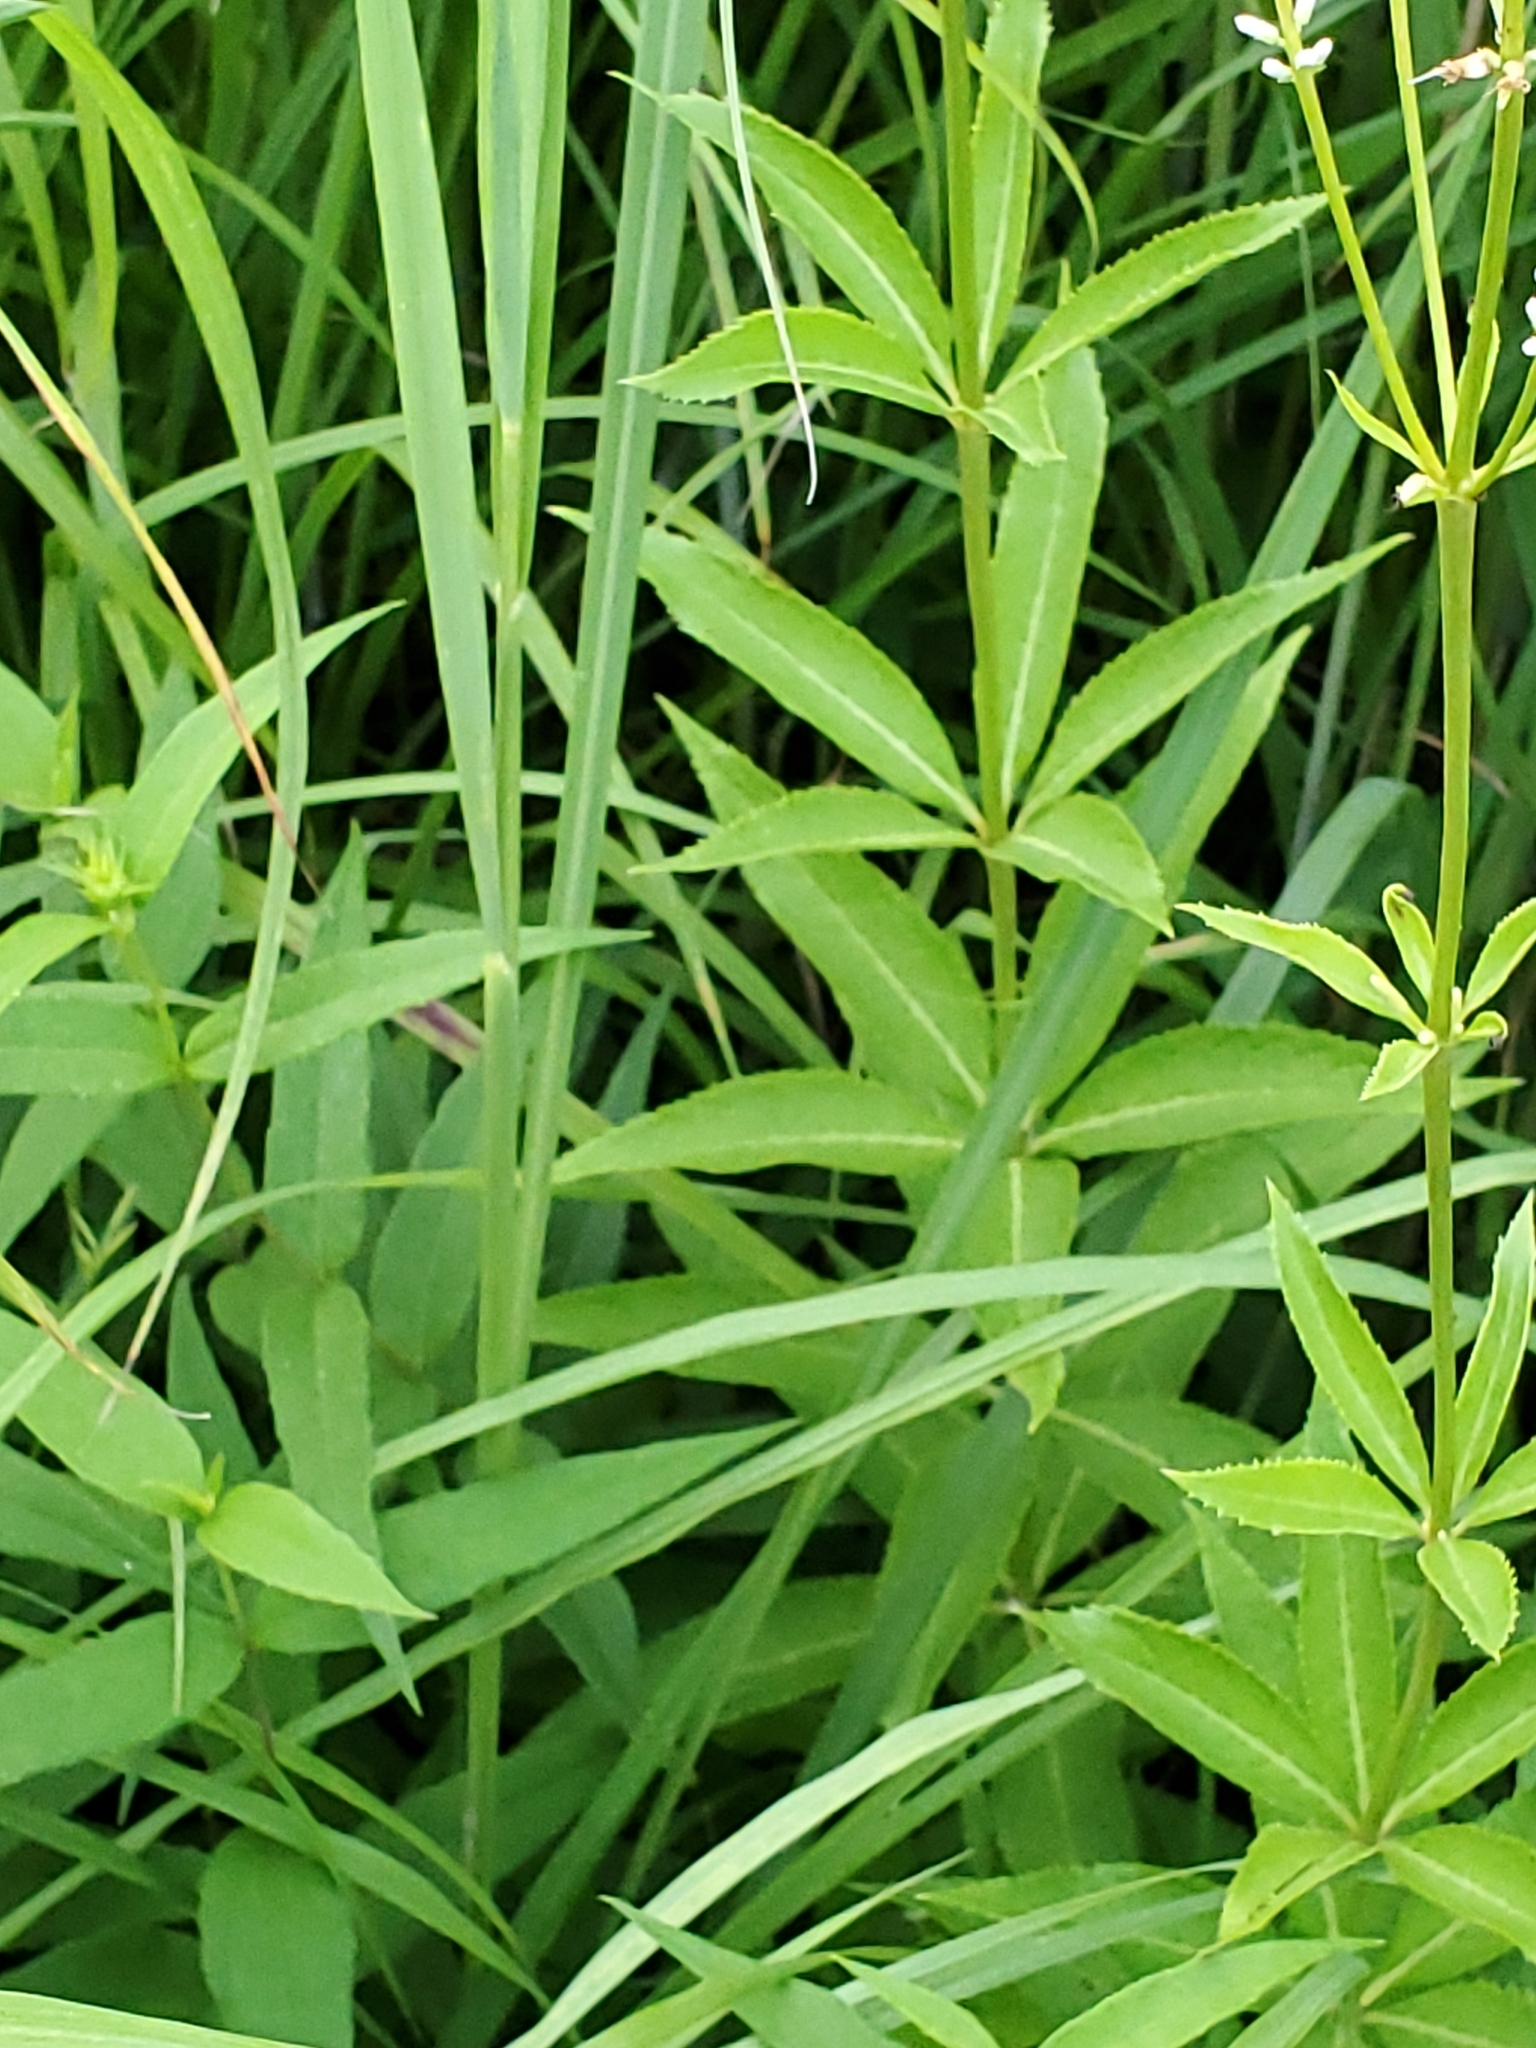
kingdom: Plantae
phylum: Tracheophyta
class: Magnoliopsida
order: Lamiales
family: Plantaginaceae
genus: Veronicastrum
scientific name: Veronicastrum virginicum
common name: Blackroot
